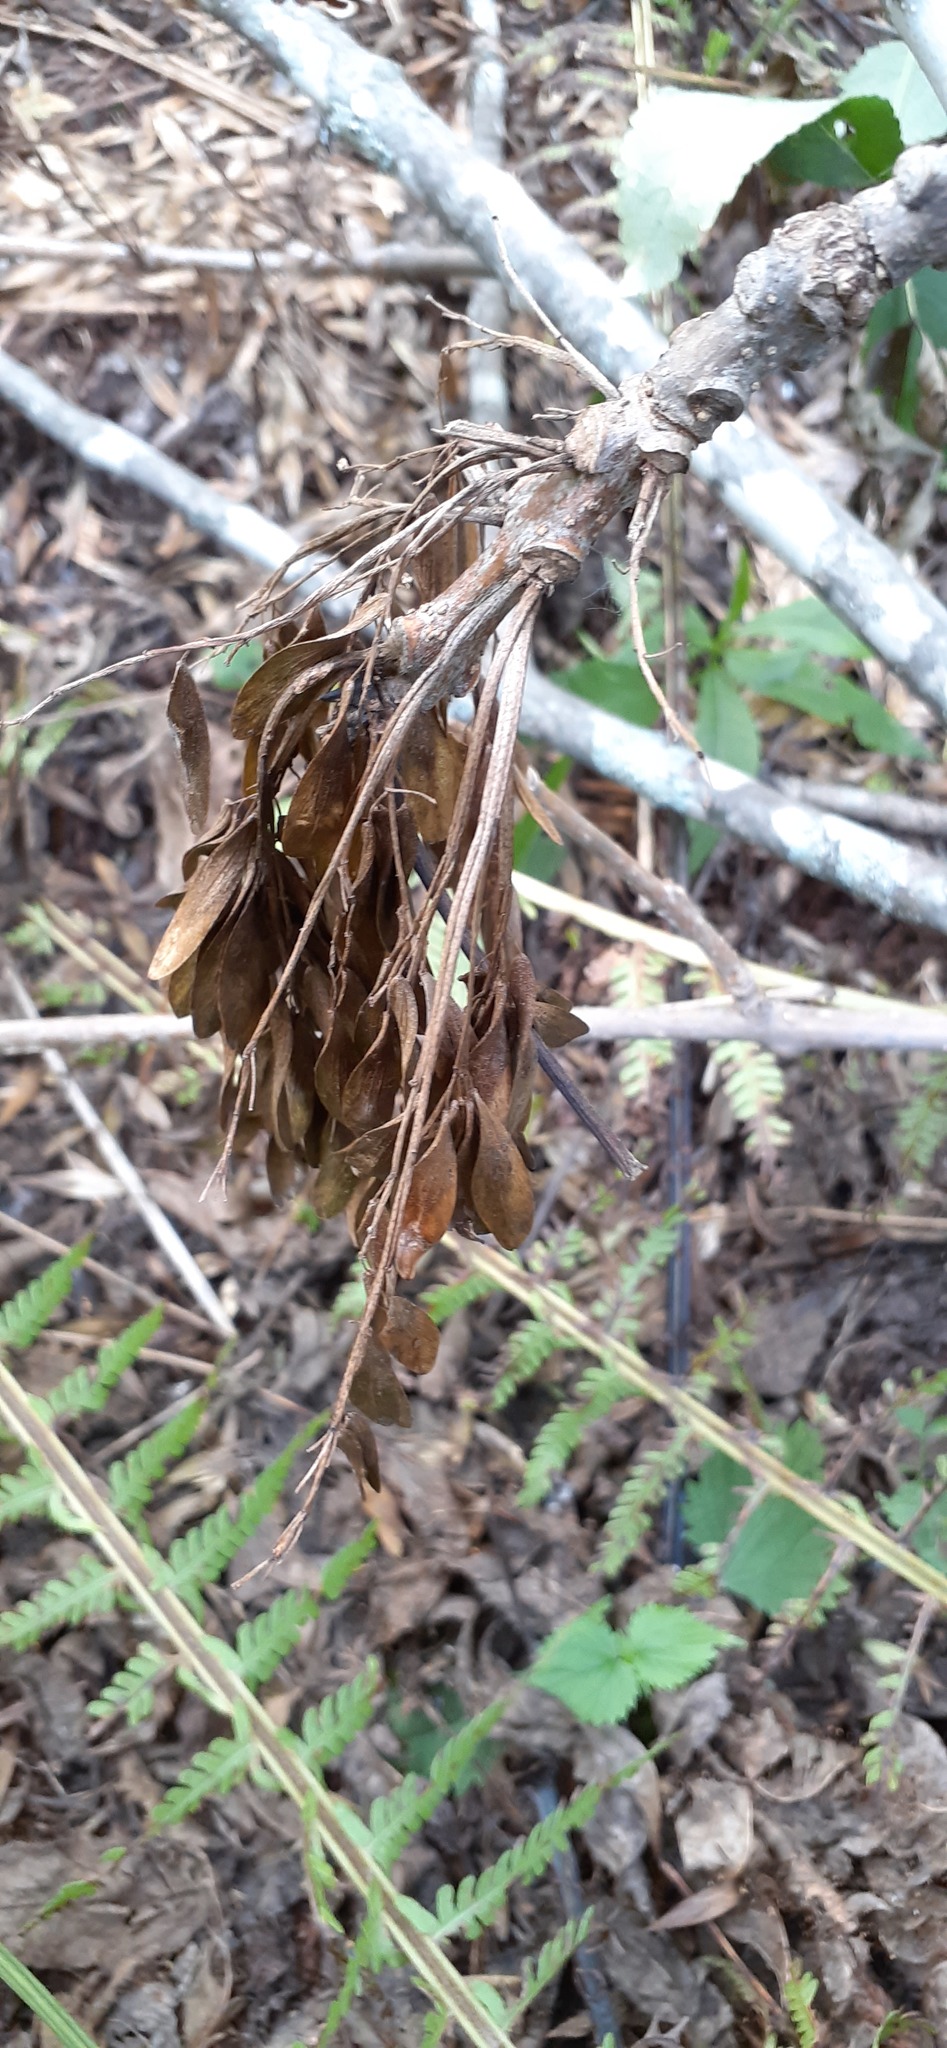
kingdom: Plantae
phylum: Tracheophyta
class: Magnoliopsida
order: Lamiales
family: Oleaceae
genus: Fraxinus
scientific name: Fraxinus mandshurica
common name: Manchurian ash
